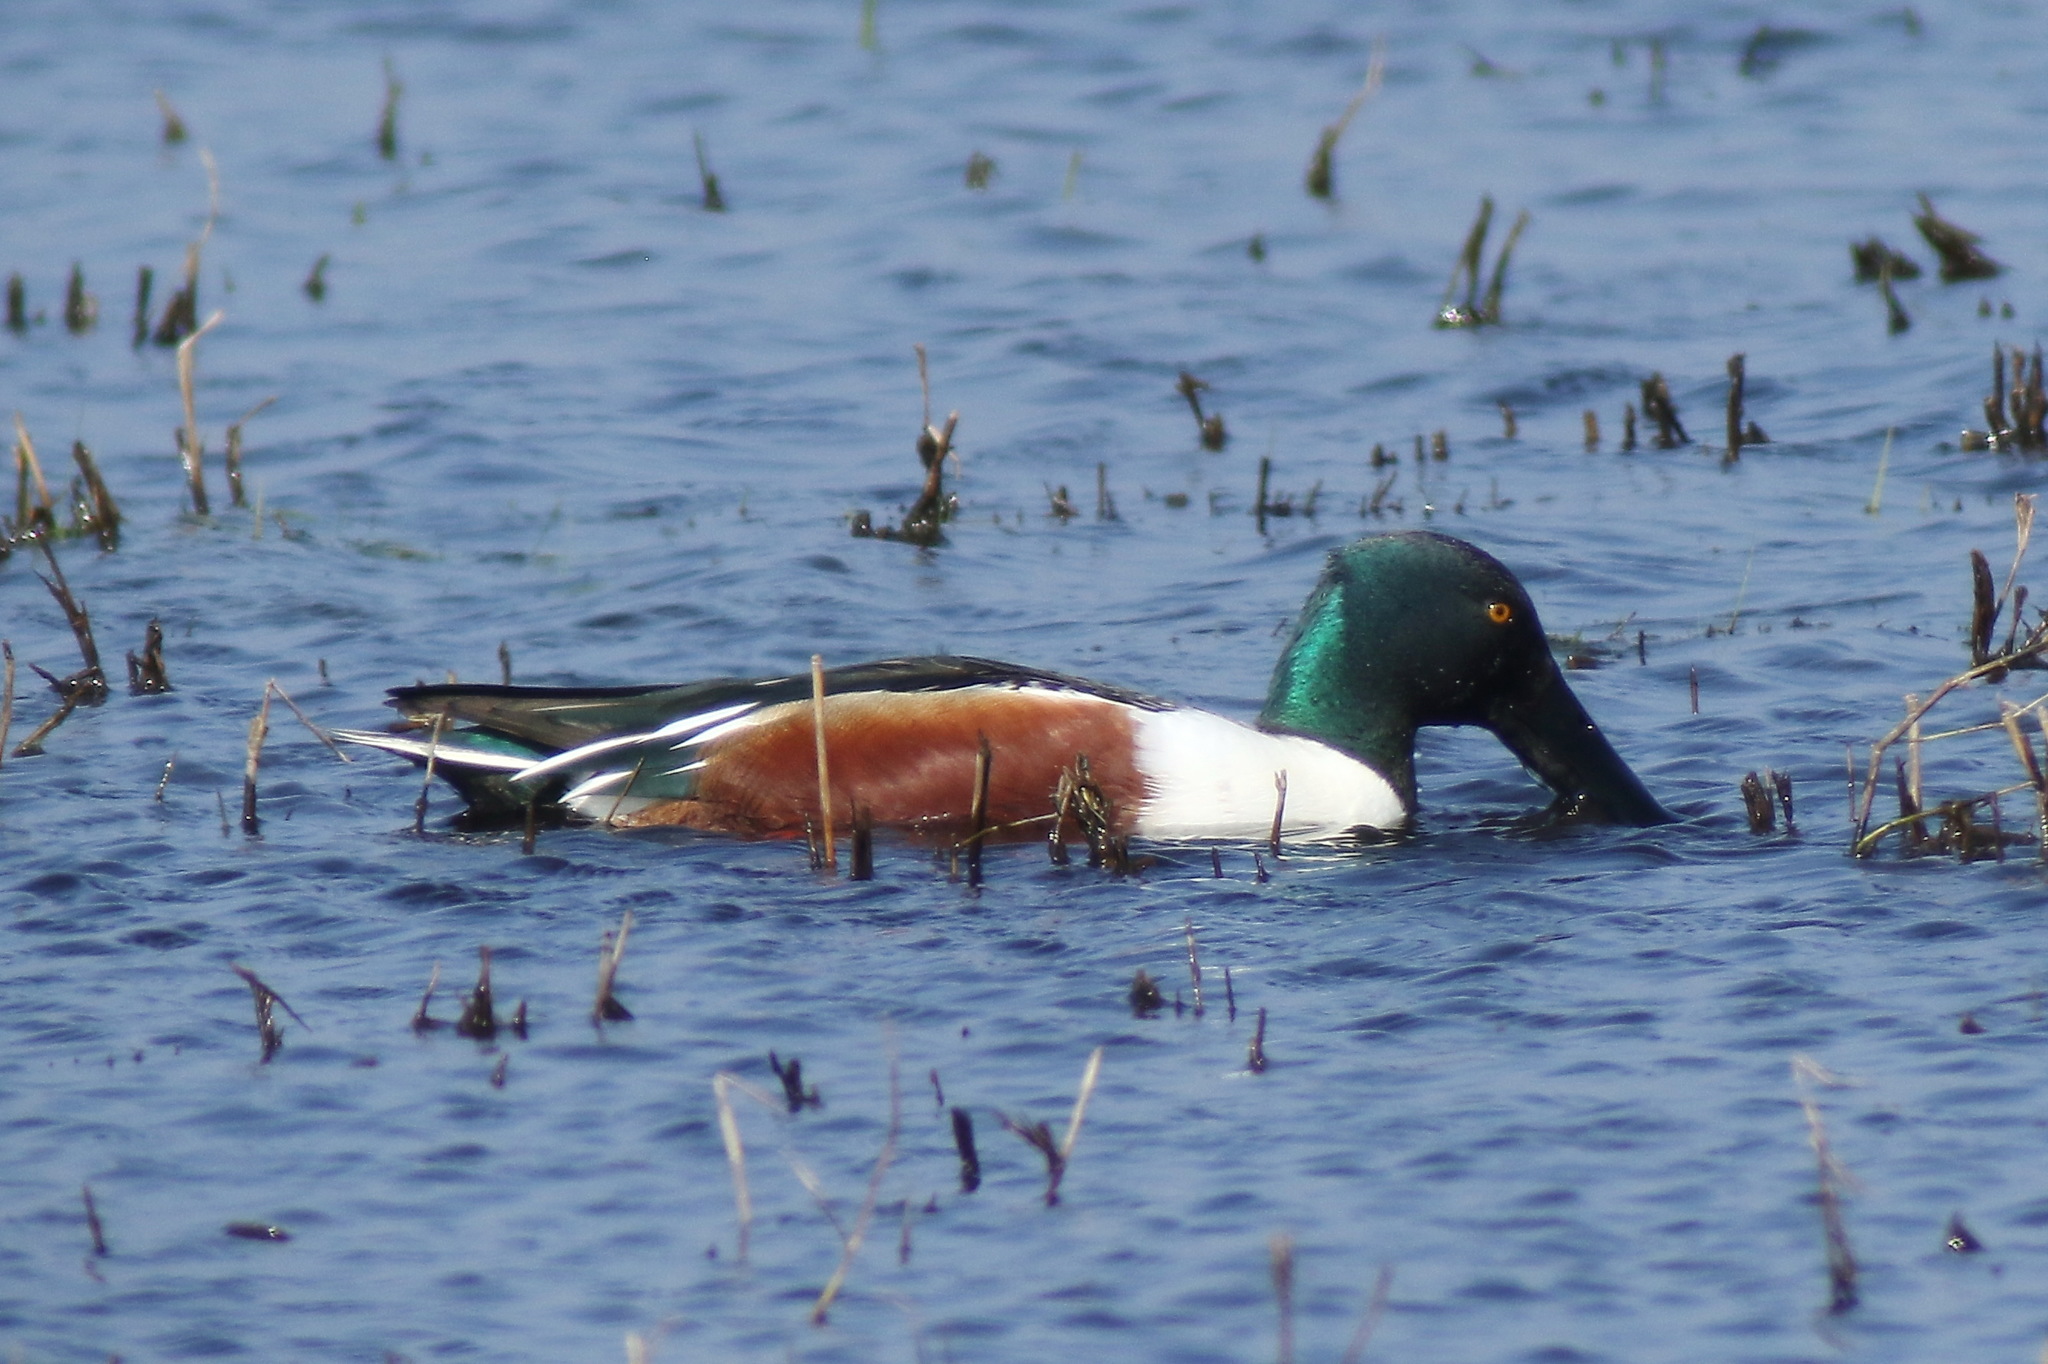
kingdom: Animalia
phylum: Chordata
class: Aves
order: Anseriformes
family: Anatidae
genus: Spatula
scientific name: Spatula clypeata
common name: Northern shoveler
